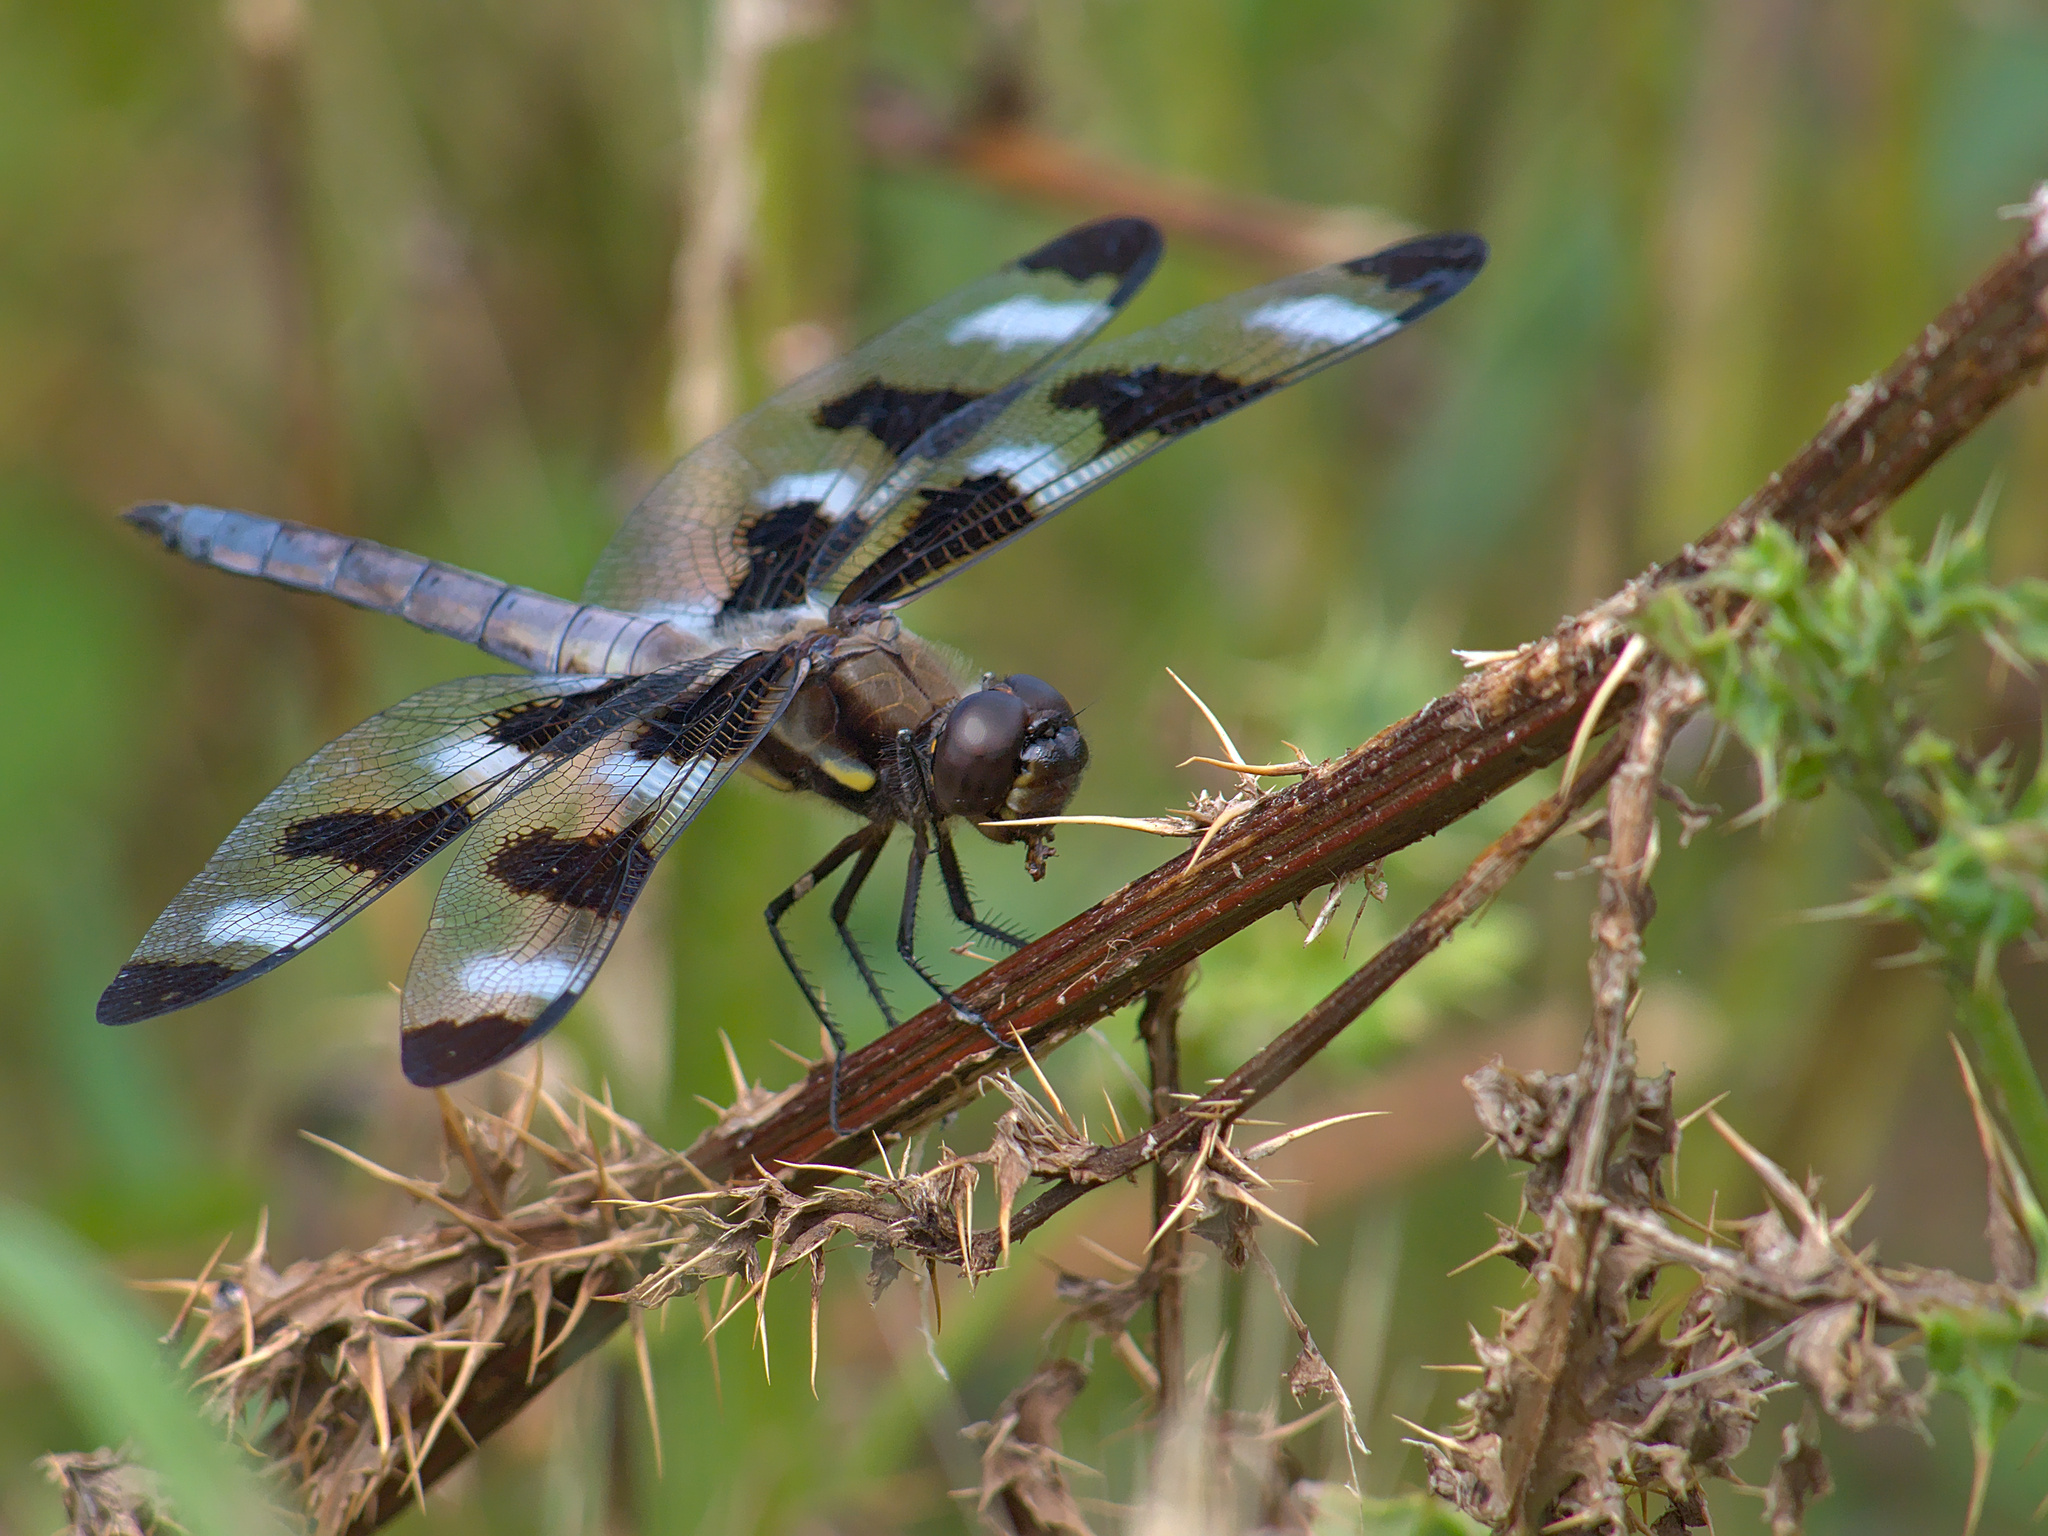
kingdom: Animalia
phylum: Arthropoda
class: Insecta
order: Odonata
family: Libellulidae
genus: Libellula
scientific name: Libellula pulchella
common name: Twelve-spotted skimmer
